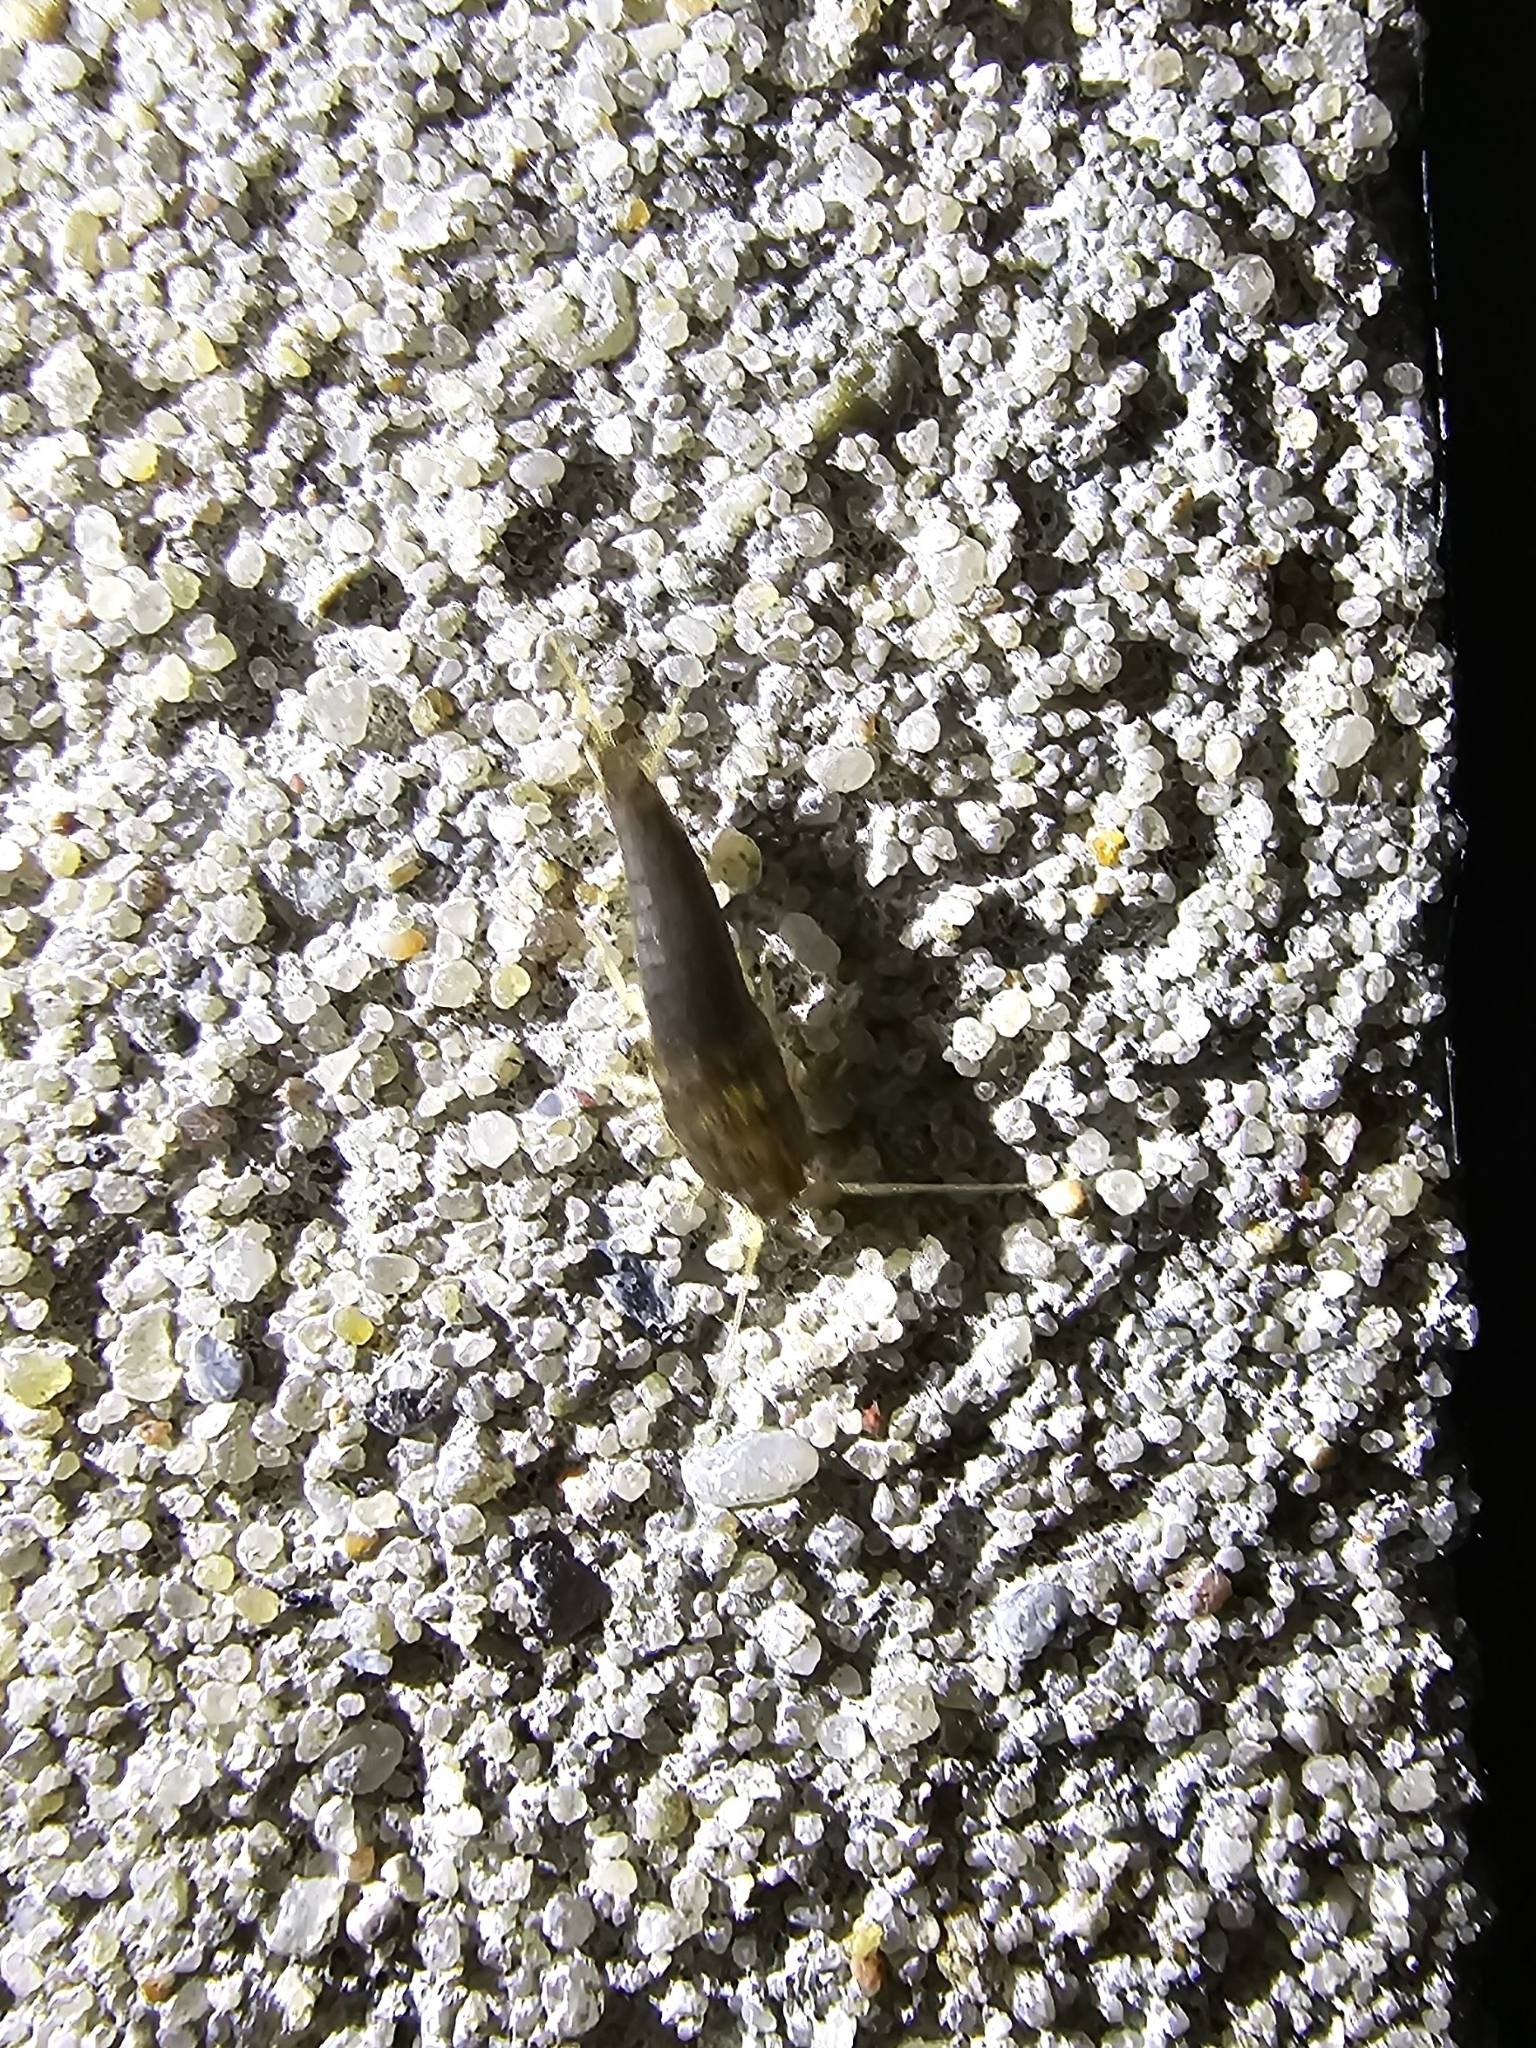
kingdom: Animalia
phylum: Arthropoda
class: Insecta
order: Zygentoma
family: Lepismatidae
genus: Lepisma
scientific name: Lepisma saccharinum
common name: Silverfish
